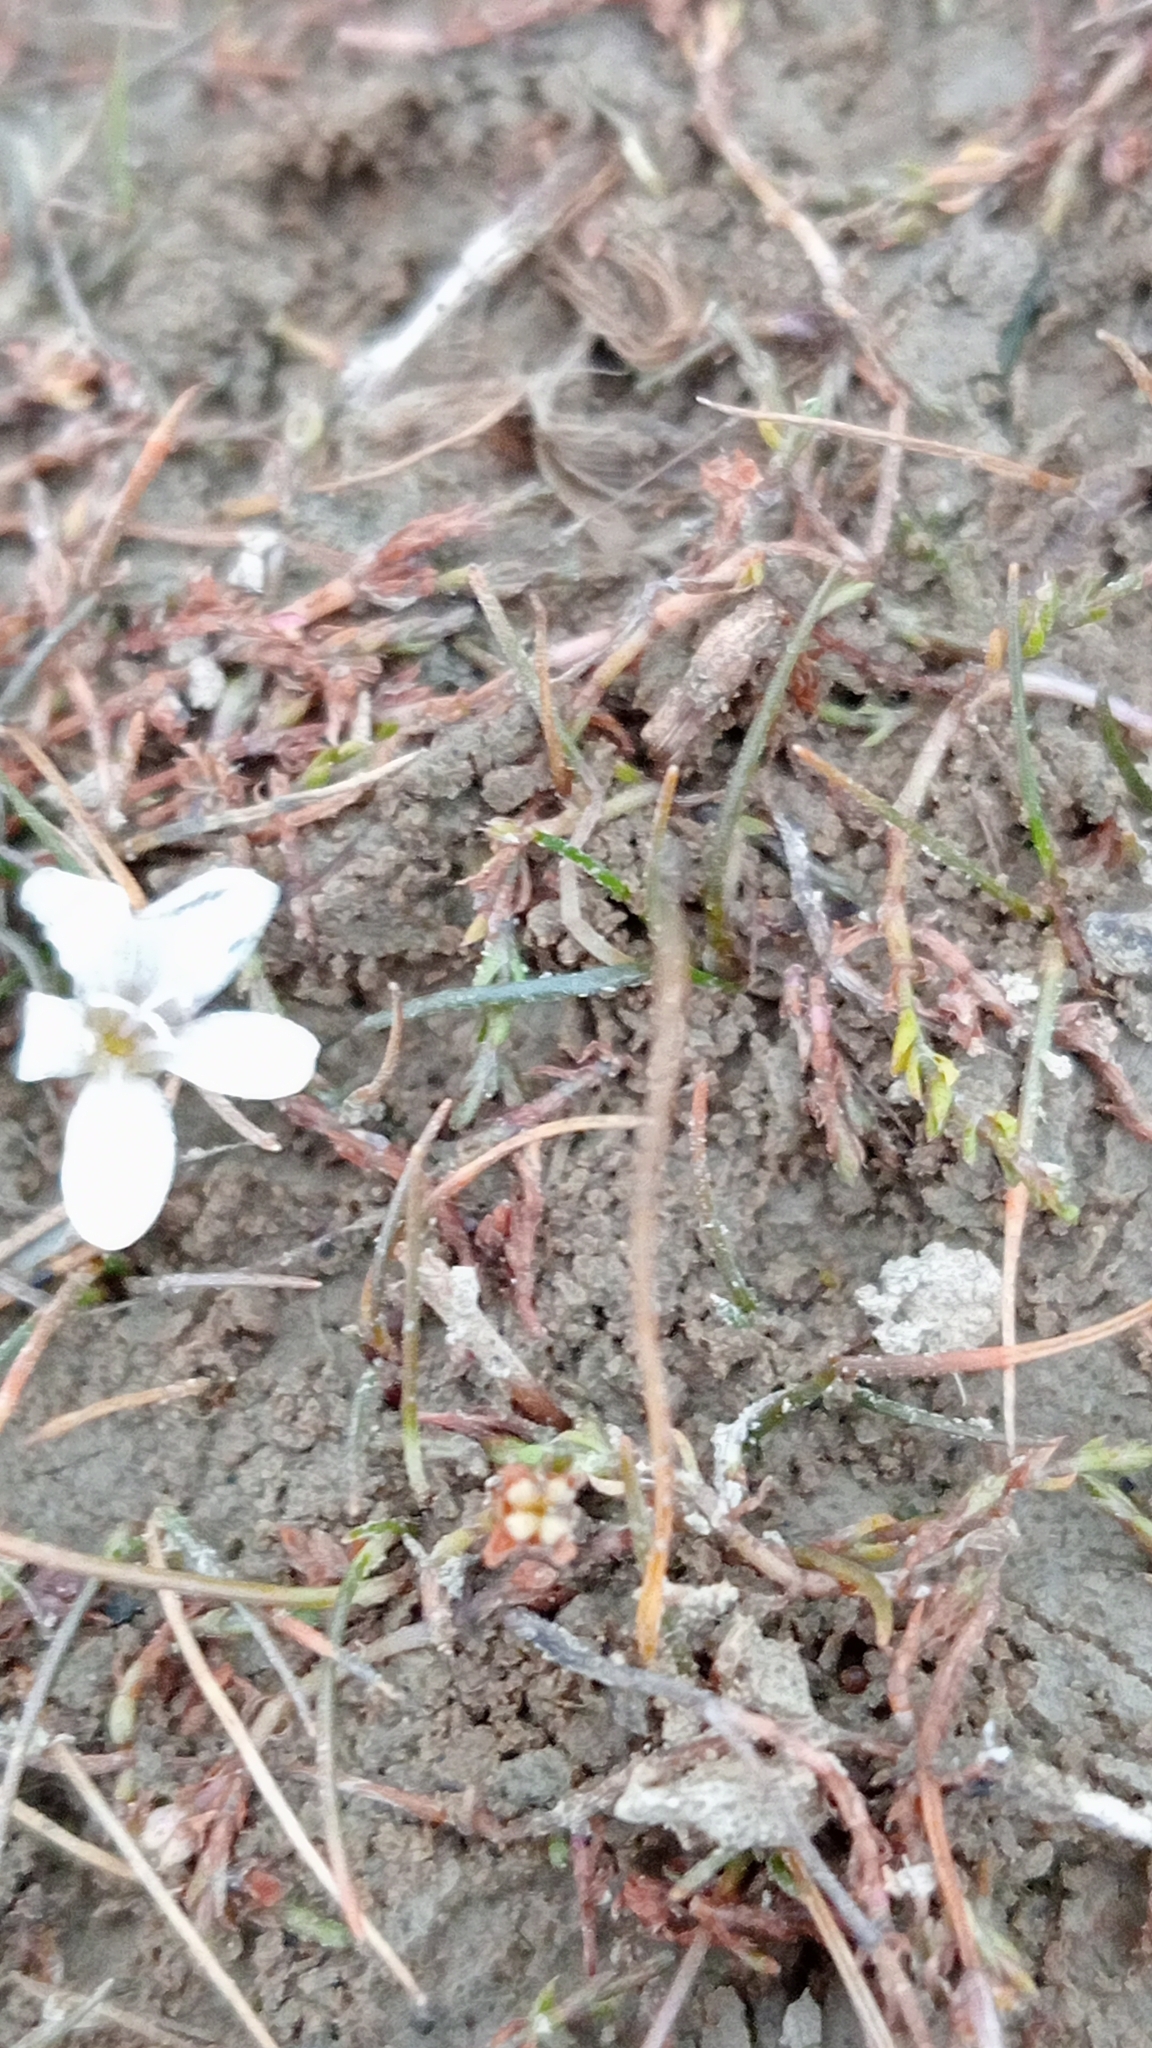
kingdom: Plantae
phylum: Tracheophyta
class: Magnoliopsida
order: Caryophyllales
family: Montiaceae
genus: Montia
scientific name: Montia angustifolia
